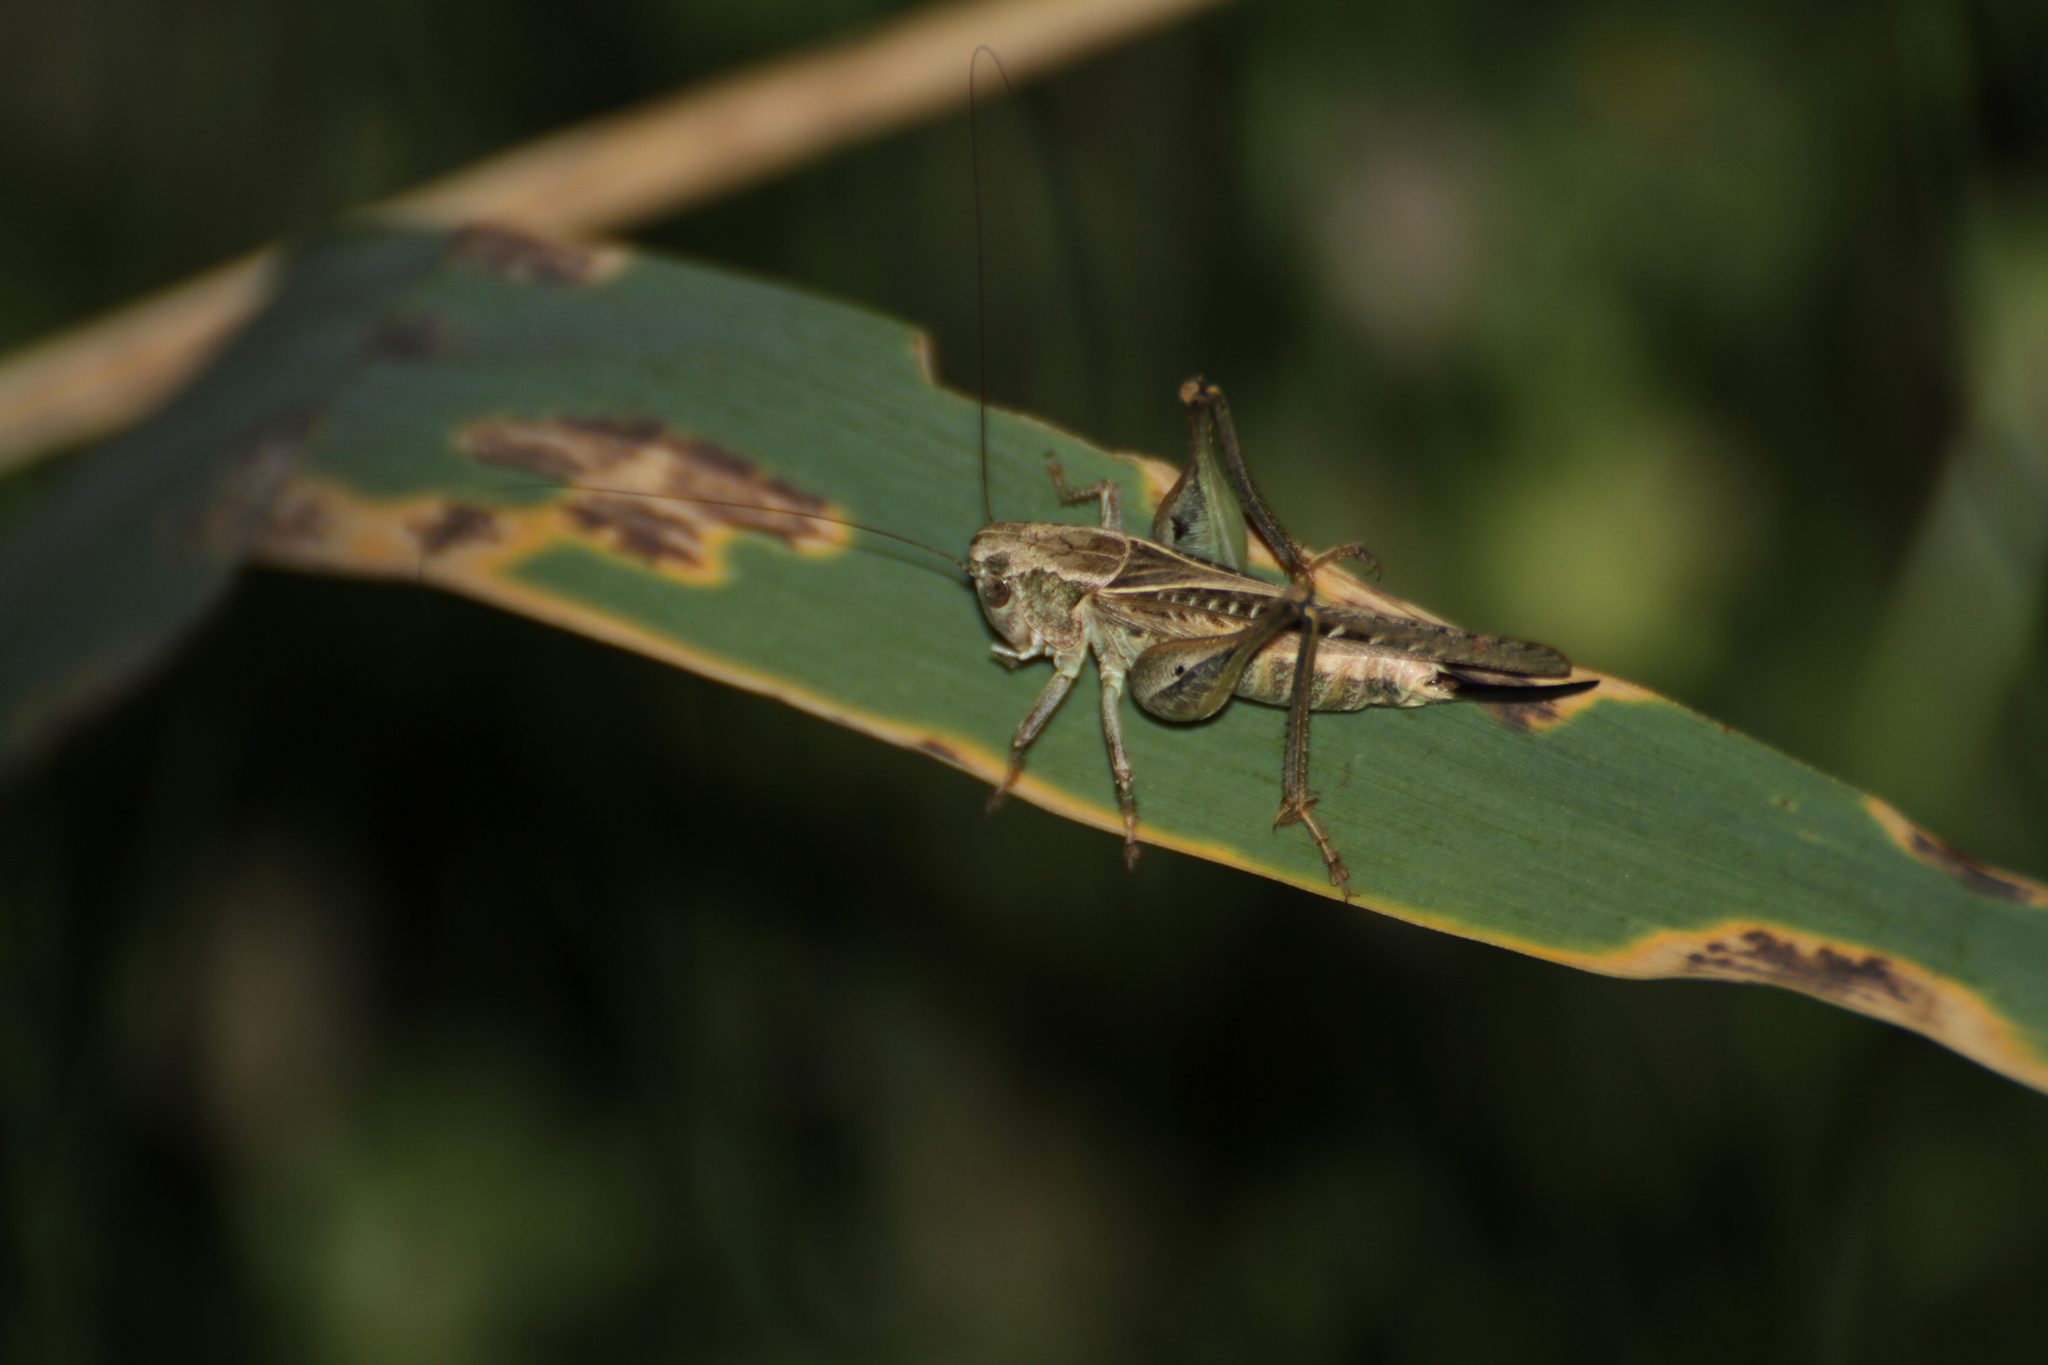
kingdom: Animalia
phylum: Arthropoda
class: Insecta
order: Orthoptera
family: Tettigoniidae
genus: Platycleis
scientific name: Platycleis affinis
